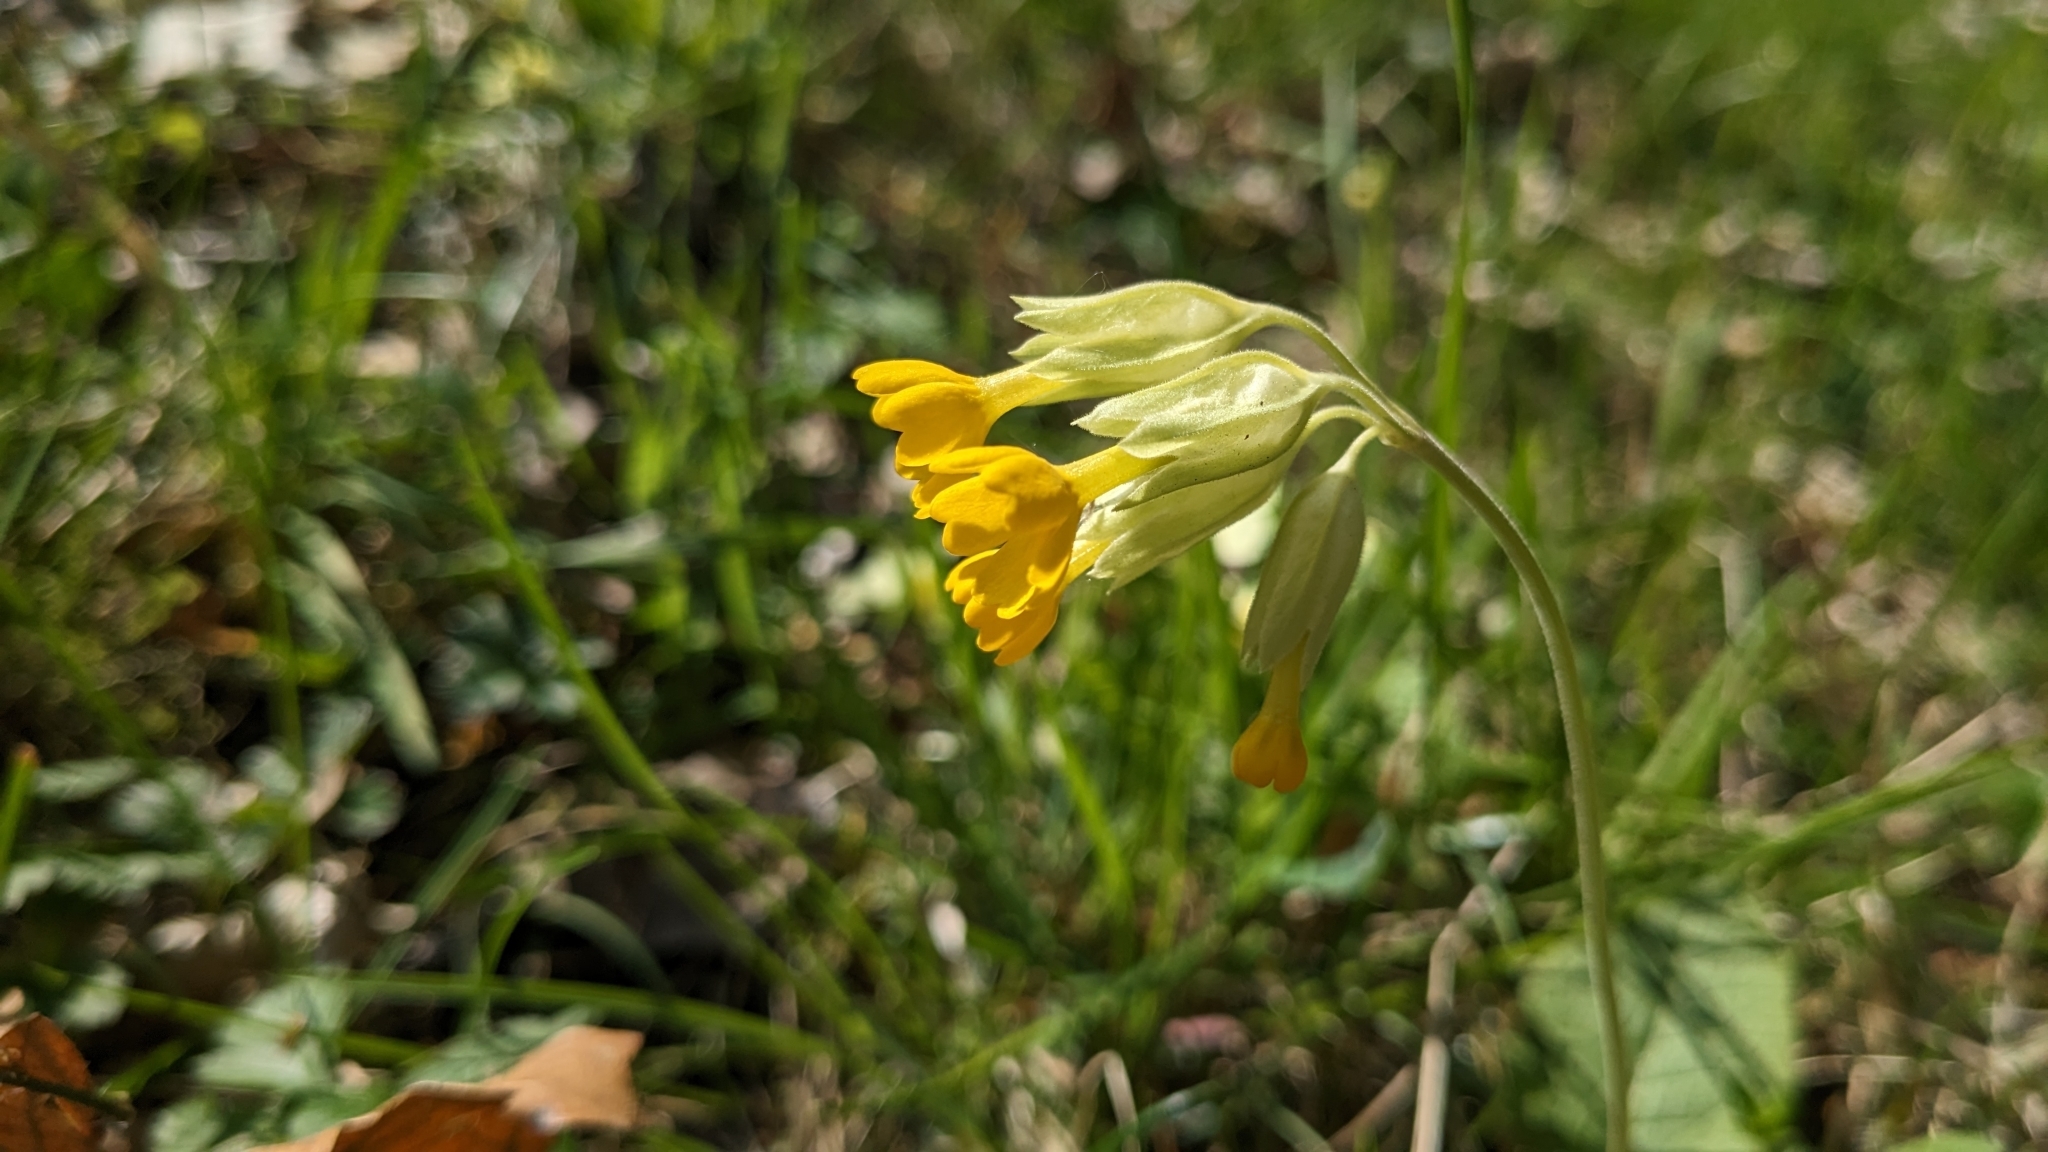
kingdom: Plantae
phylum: Tracheophyta
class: Magnoliopsida
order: Ericales
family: Primulaceae
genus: Primula
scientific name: Primula veris
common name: Cowslip
